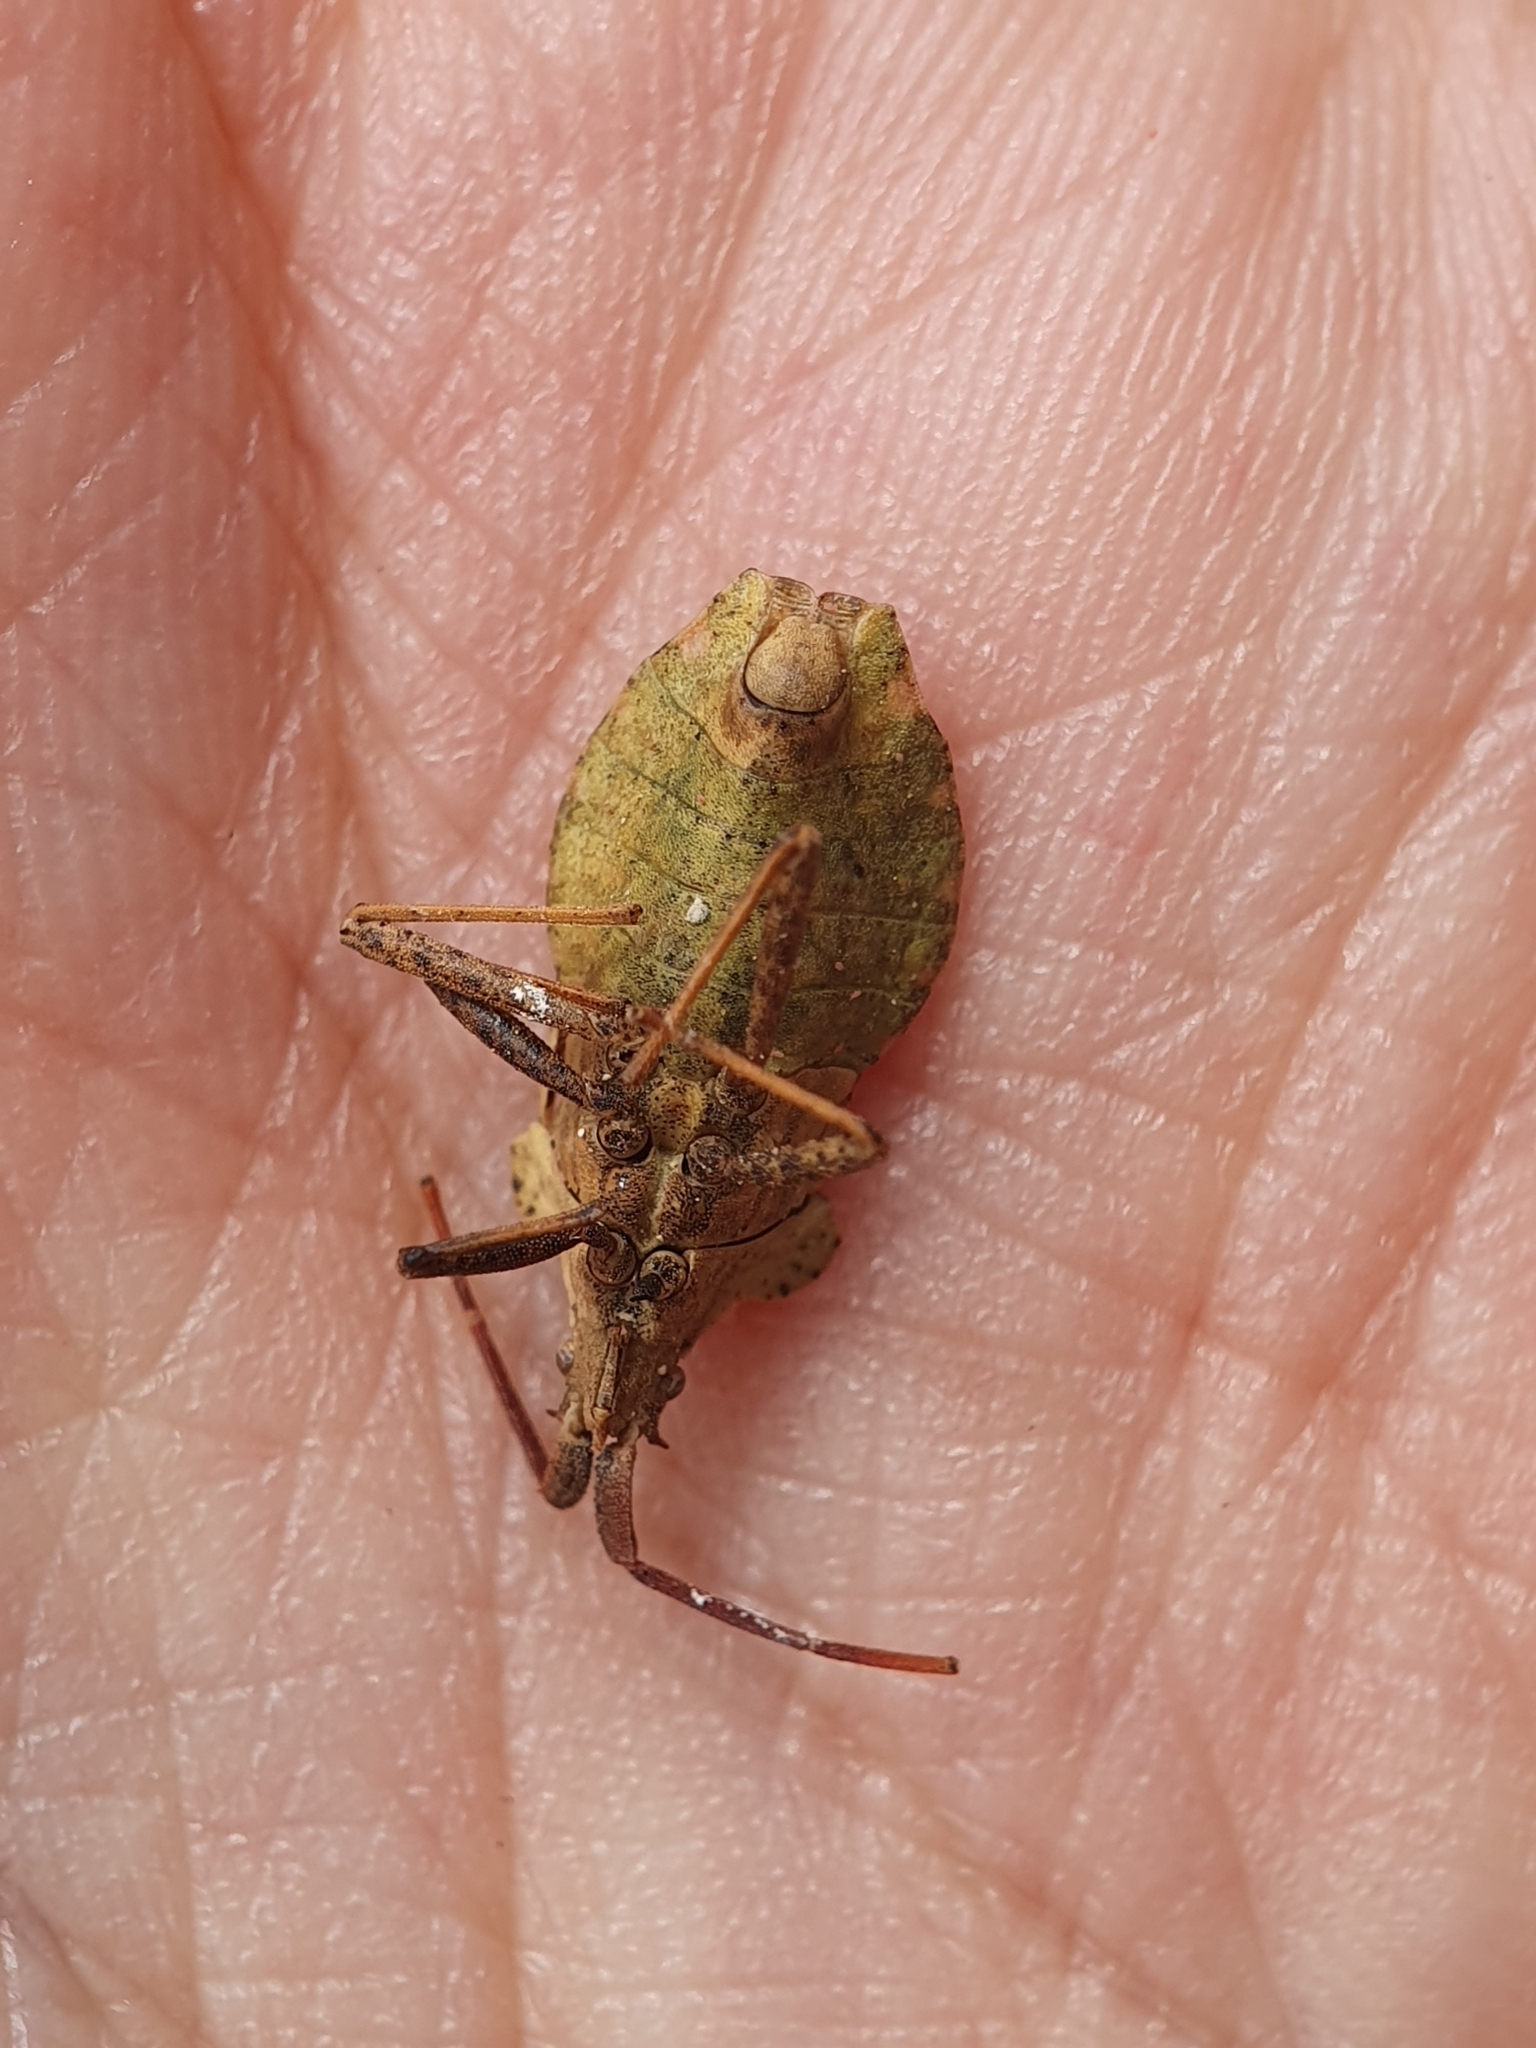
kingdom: Animalia
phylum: Arthropoda
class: Insecta
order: Hemiptera
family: Coreidae
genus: Enoplops
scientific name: Enoplops bos
